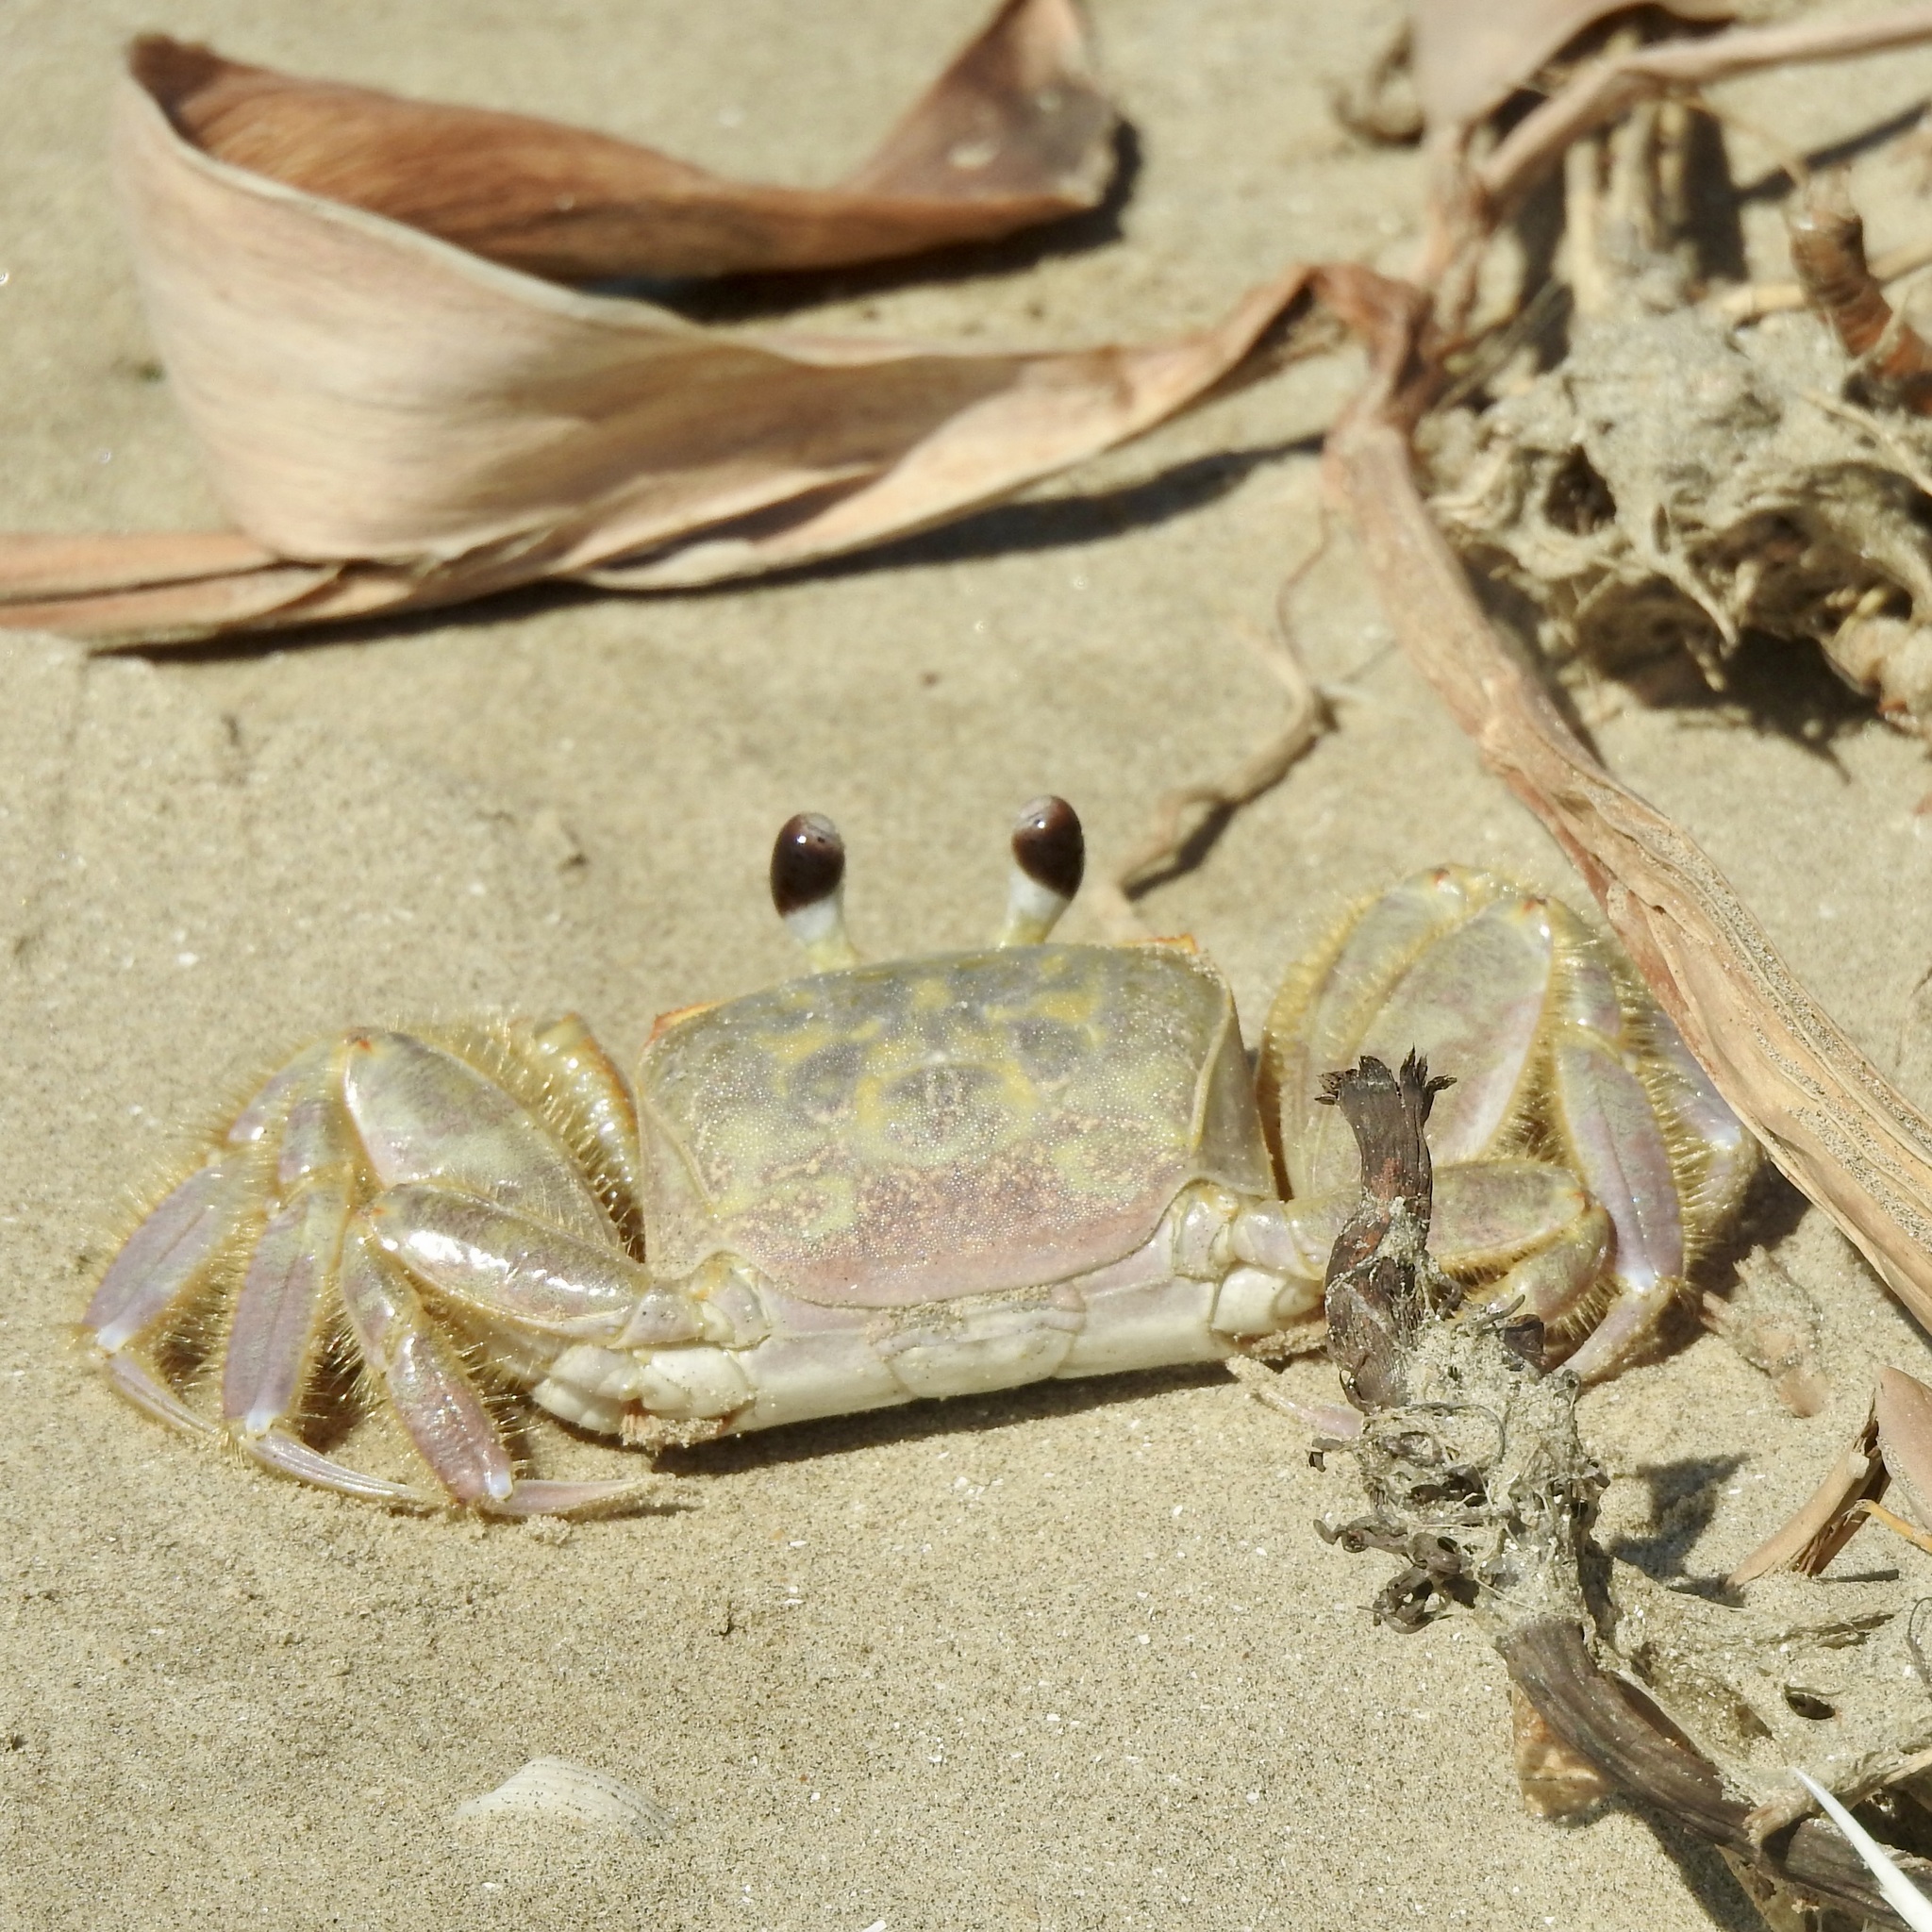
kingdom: Animalia
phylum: Arthropoda
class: Malacostraca
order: Decapoda
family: Ocypodidae
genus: Ocypode
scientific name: Ocypode quadrata
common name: Ghost crab
